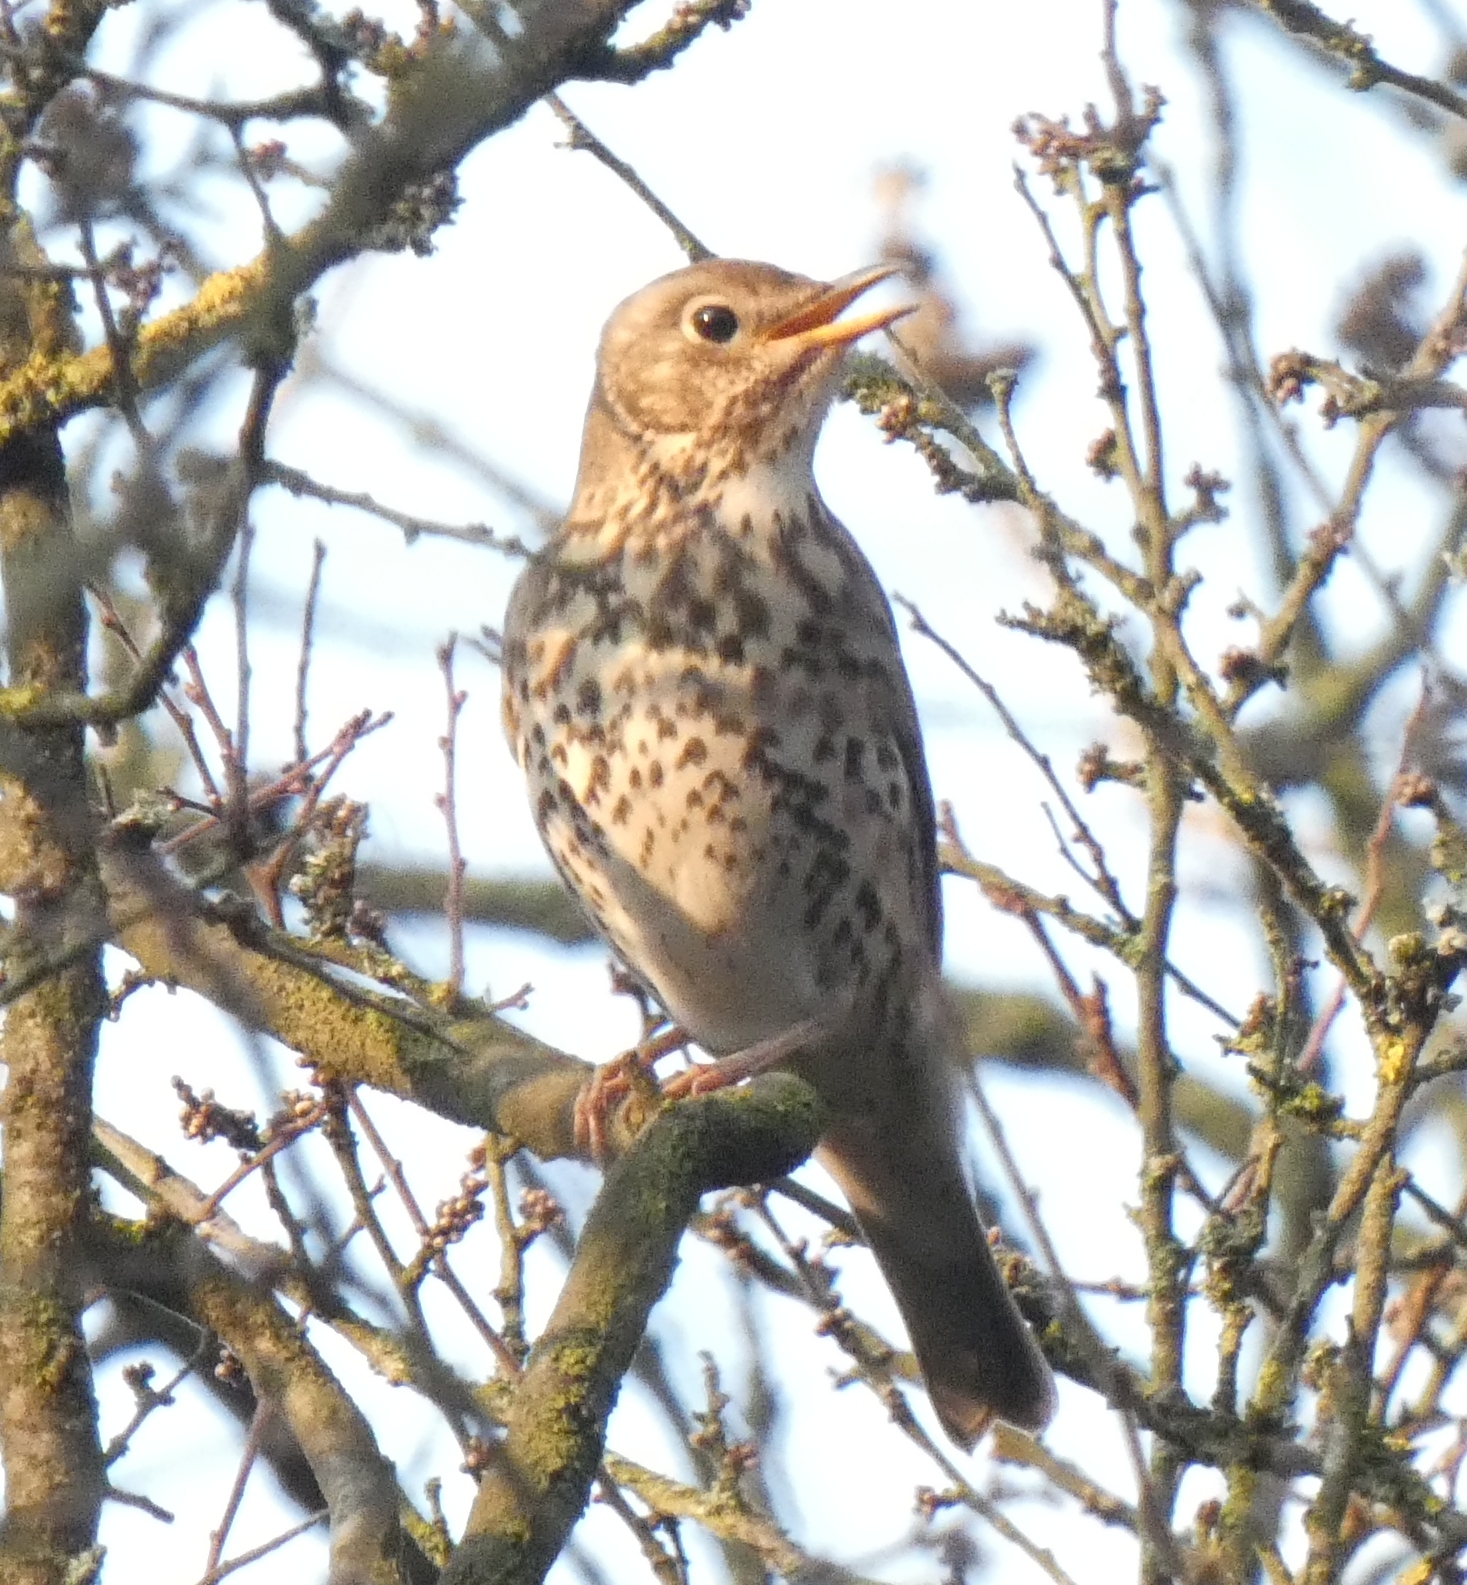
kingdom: Animalia
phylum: Chordata
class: Aves
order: Passeriformes
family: Turdidae
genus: Turdus
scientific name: Turdus philomelos
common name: Song thrush
